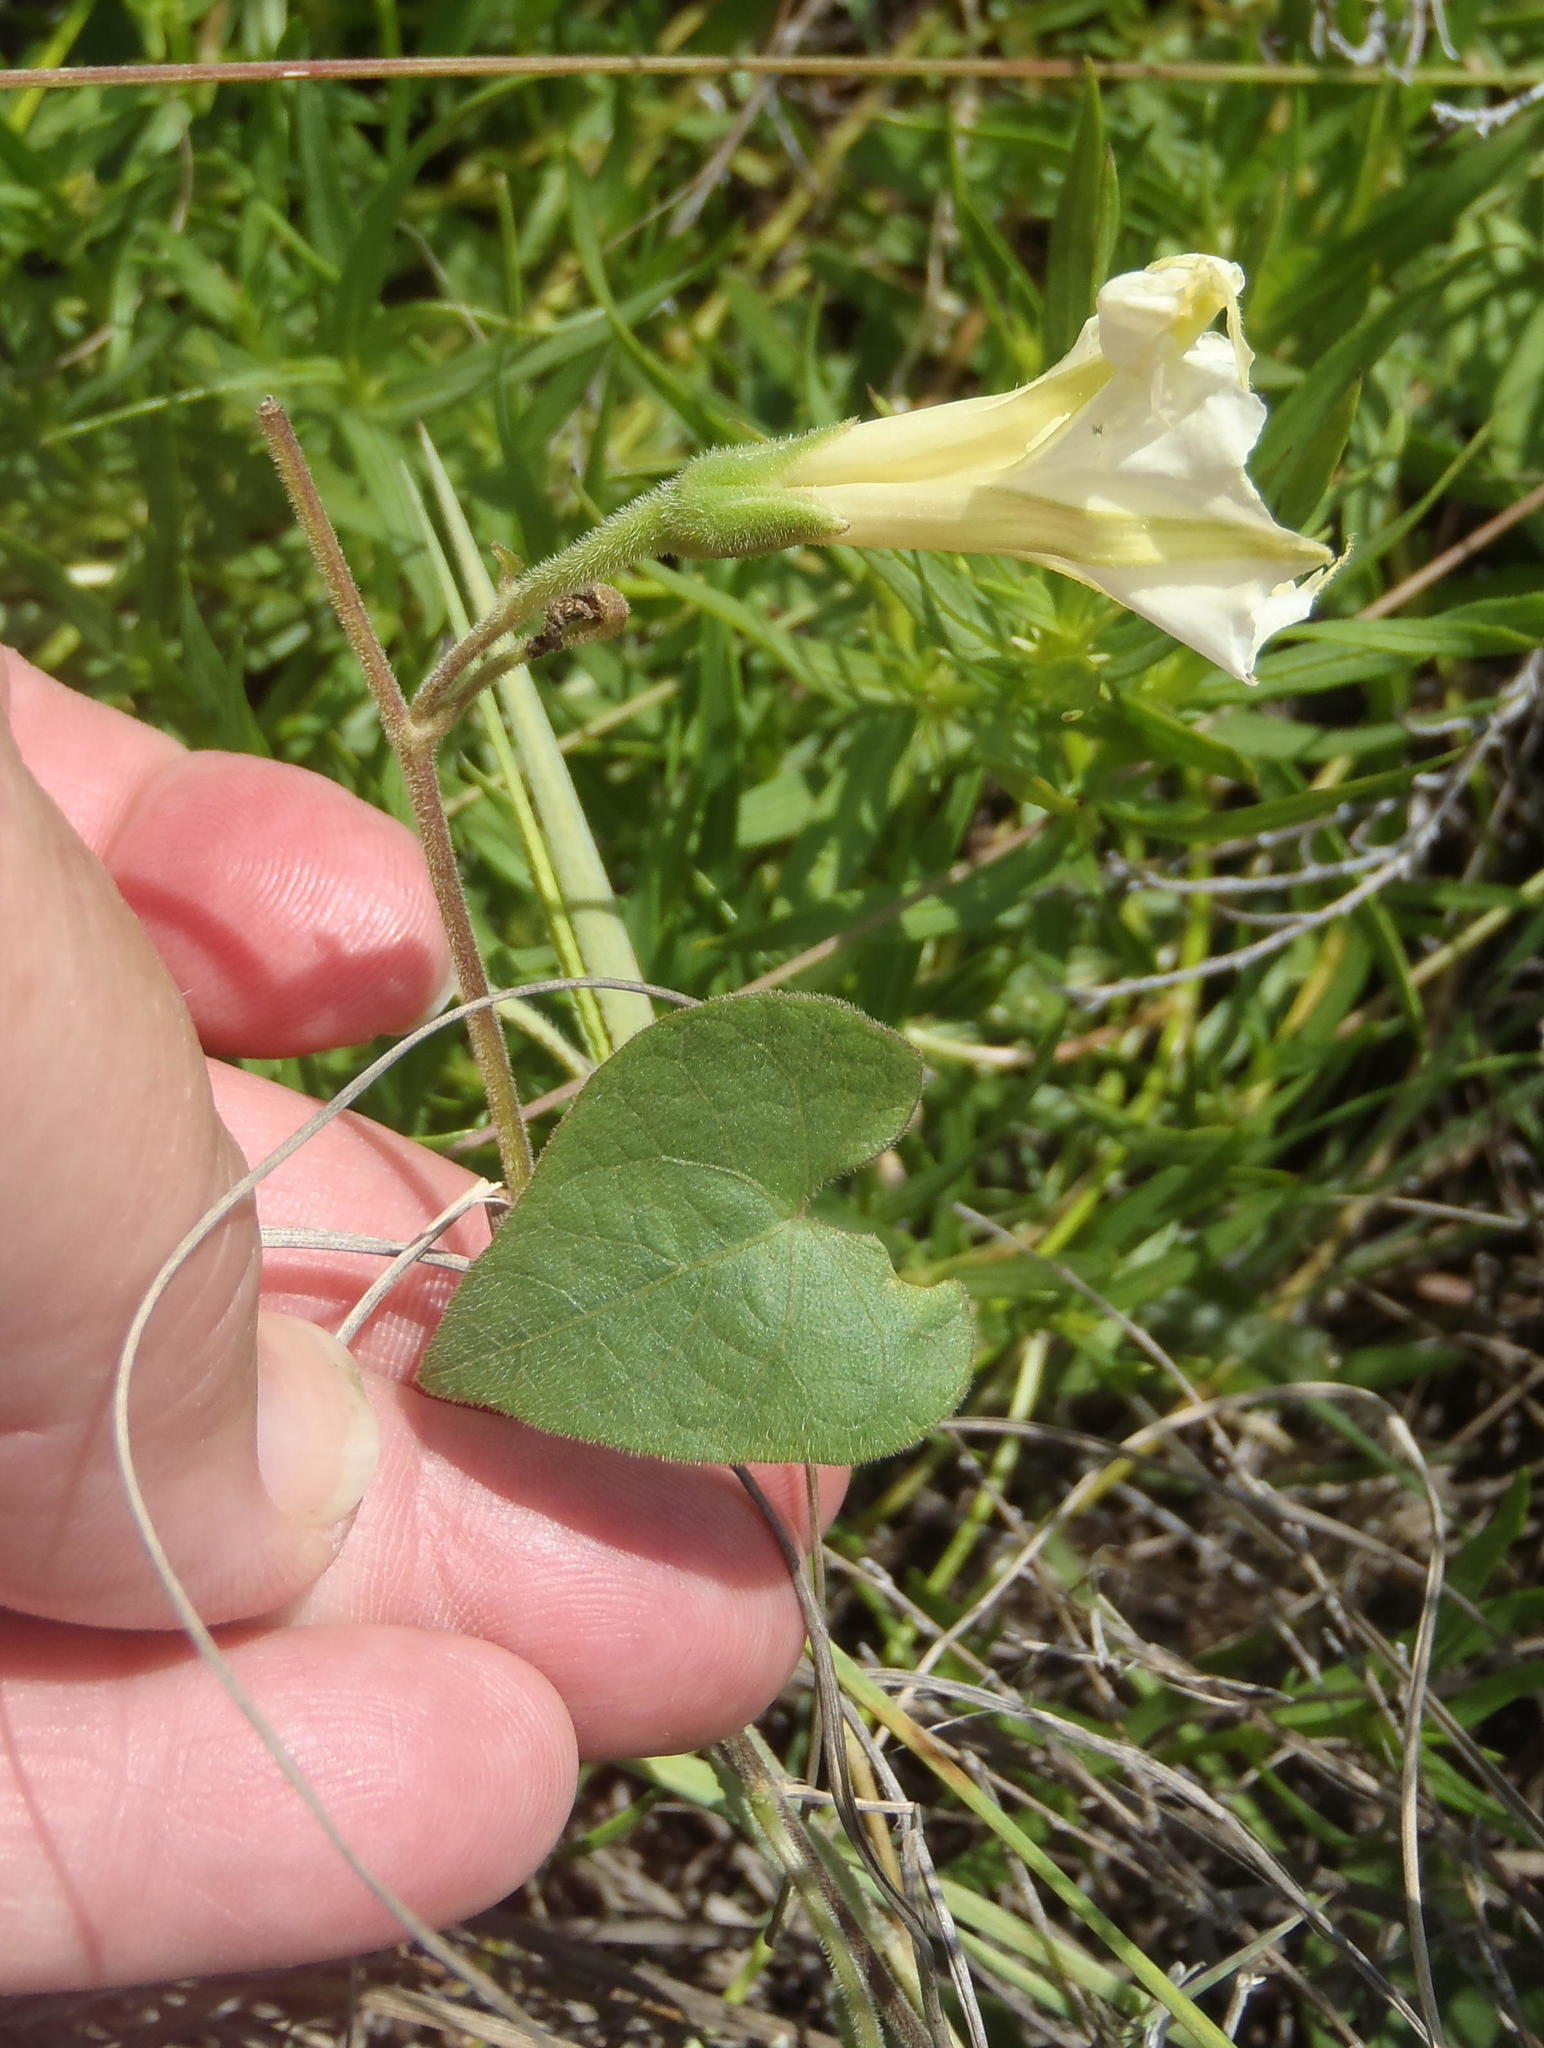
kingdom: Plantae
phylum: Tracheophyta
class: Magnoliopsida
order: Solanales
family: Convolvulaceae
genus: Ipomoea
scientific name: Ipomoea obscura
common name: Obscure morning-glory
